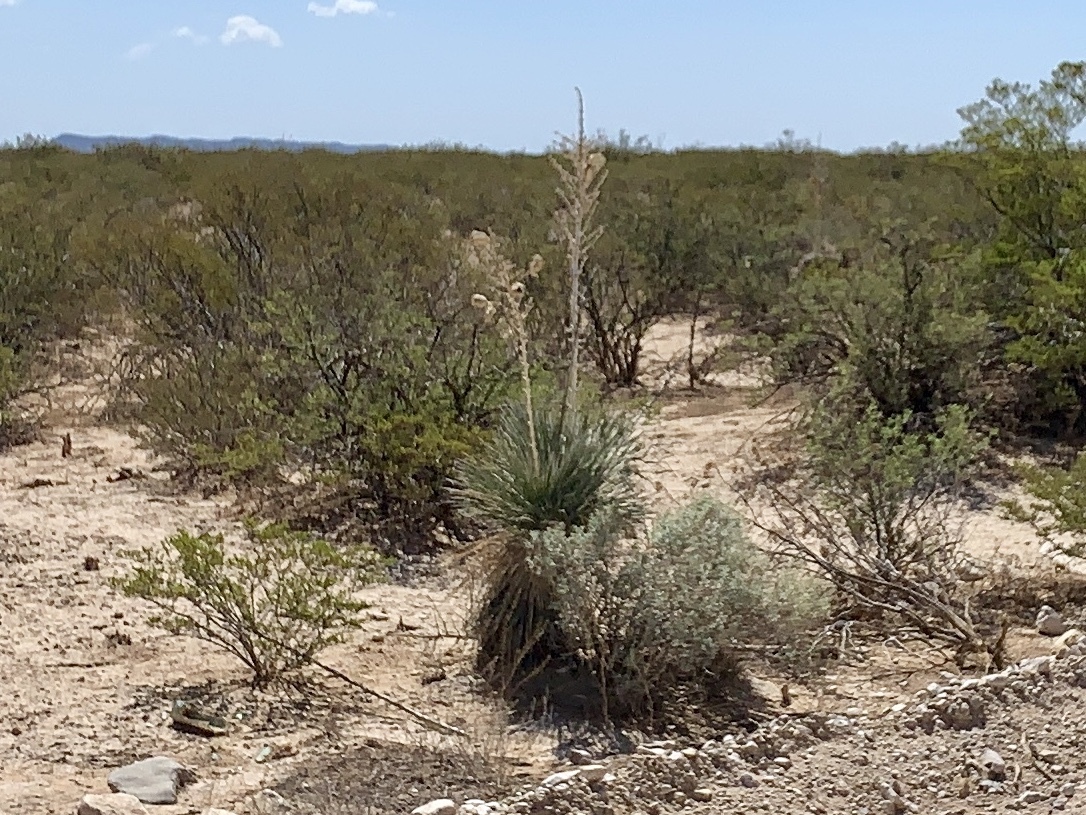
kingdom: Plantae
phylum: Tracheophyta
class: Liliopsida
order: Asparagales
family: Asparagaceae
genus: Yucca
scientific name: Yucca elata
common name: Palmella
